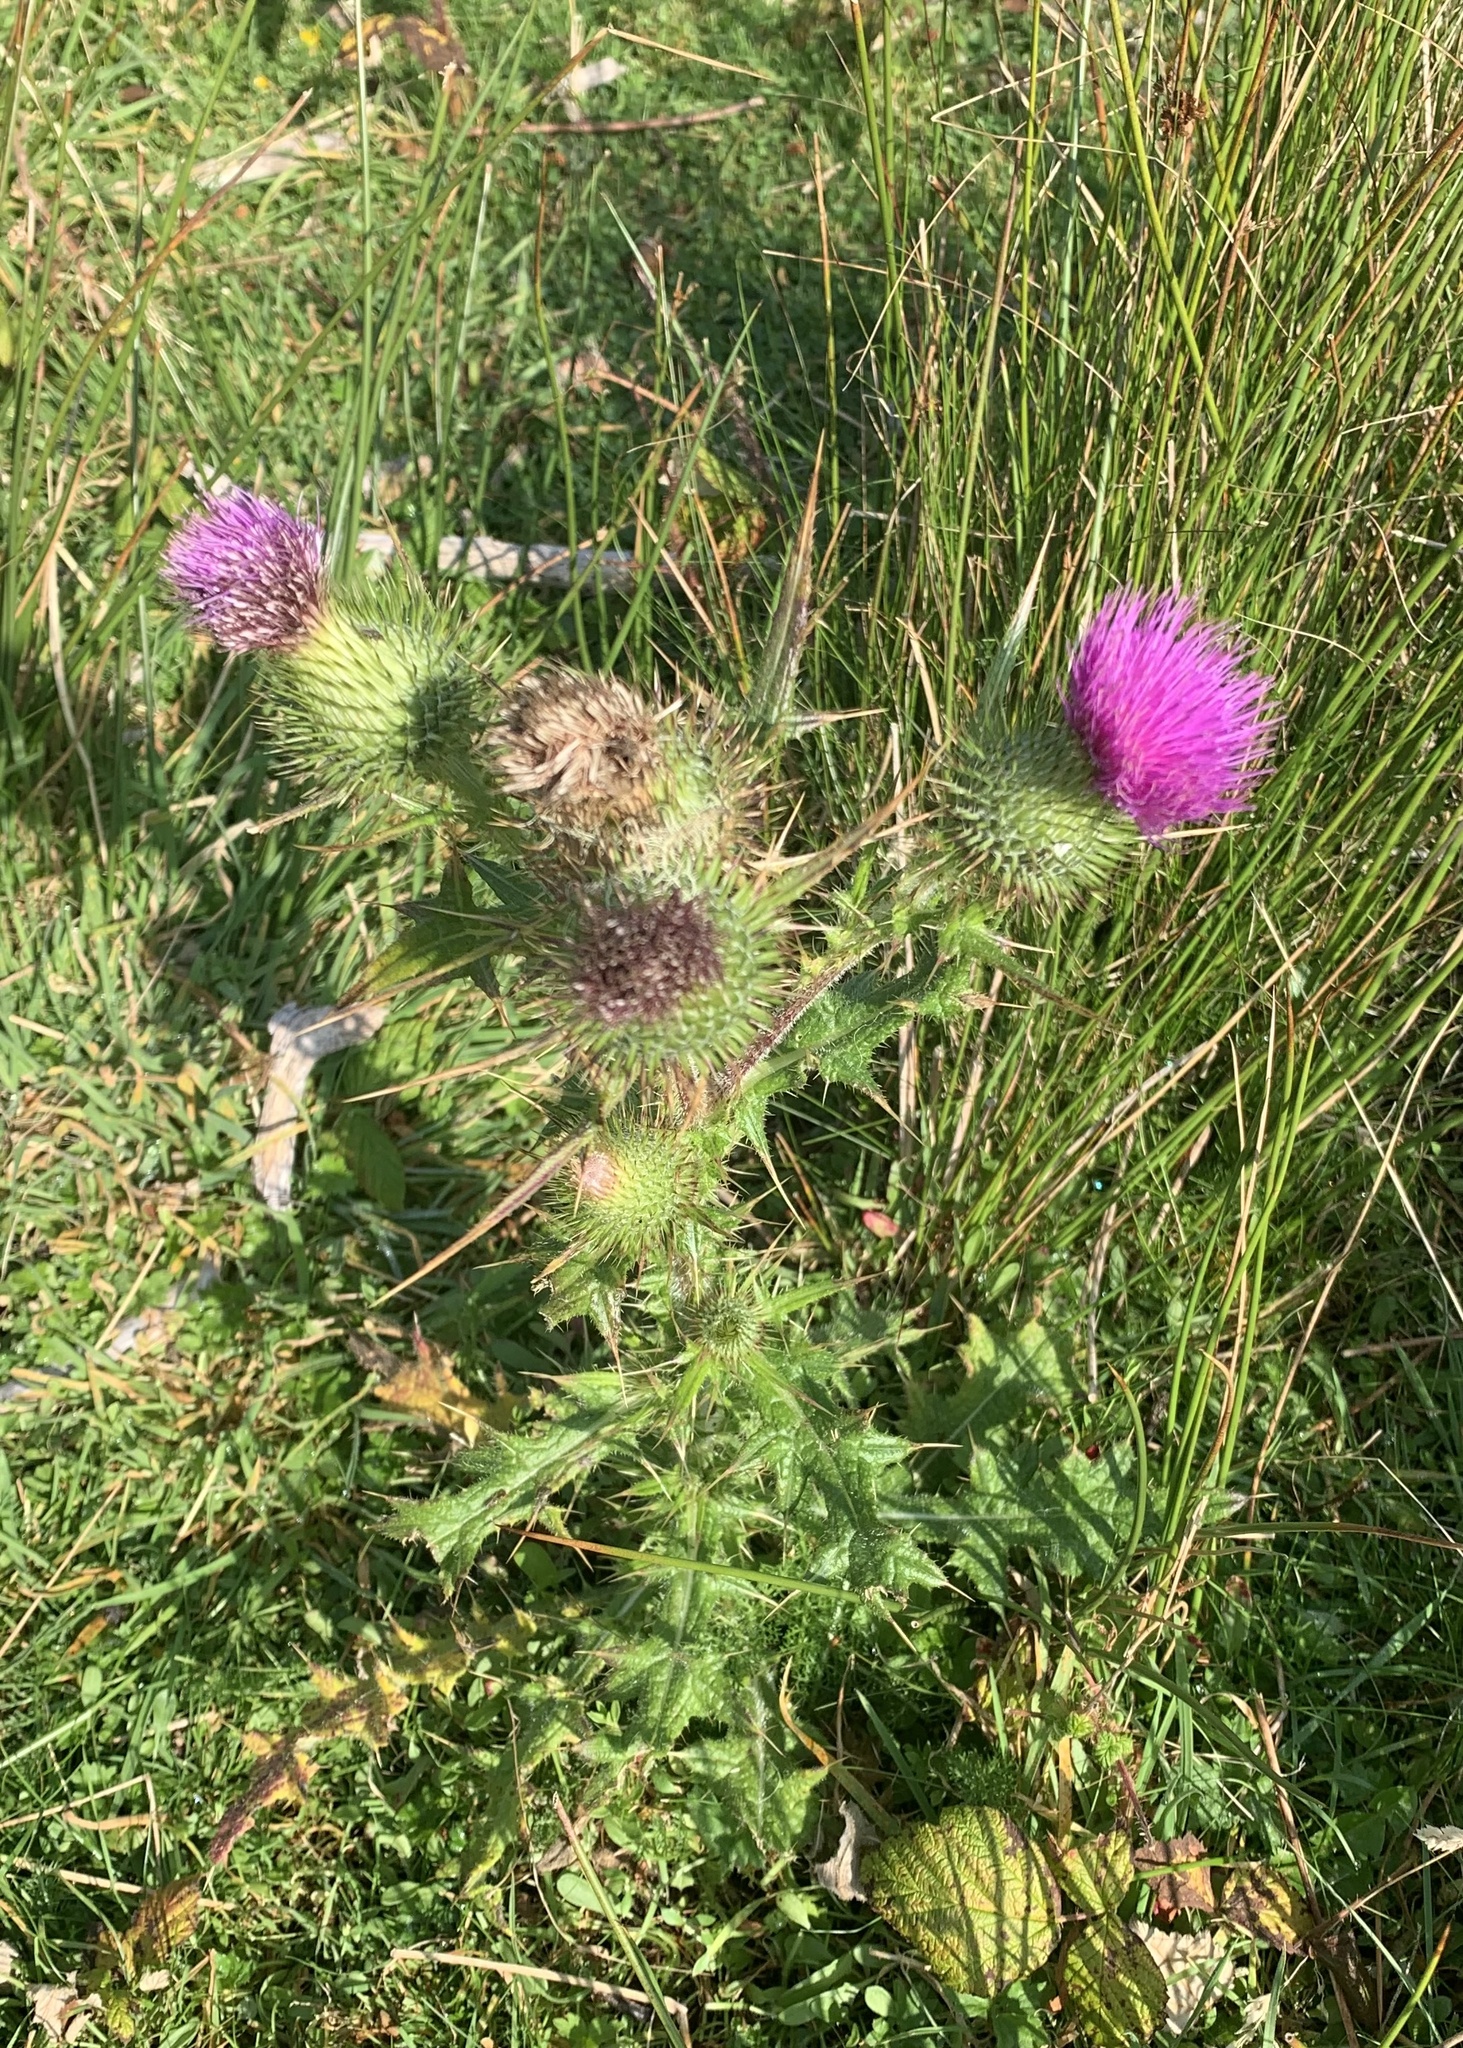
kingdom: Plantae
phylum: Tracheophyta
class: Magnoliopsida
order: Asterales
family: Asteraceae
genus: Cirsium
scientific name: Cirsium vulgare
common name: Bull thistle
